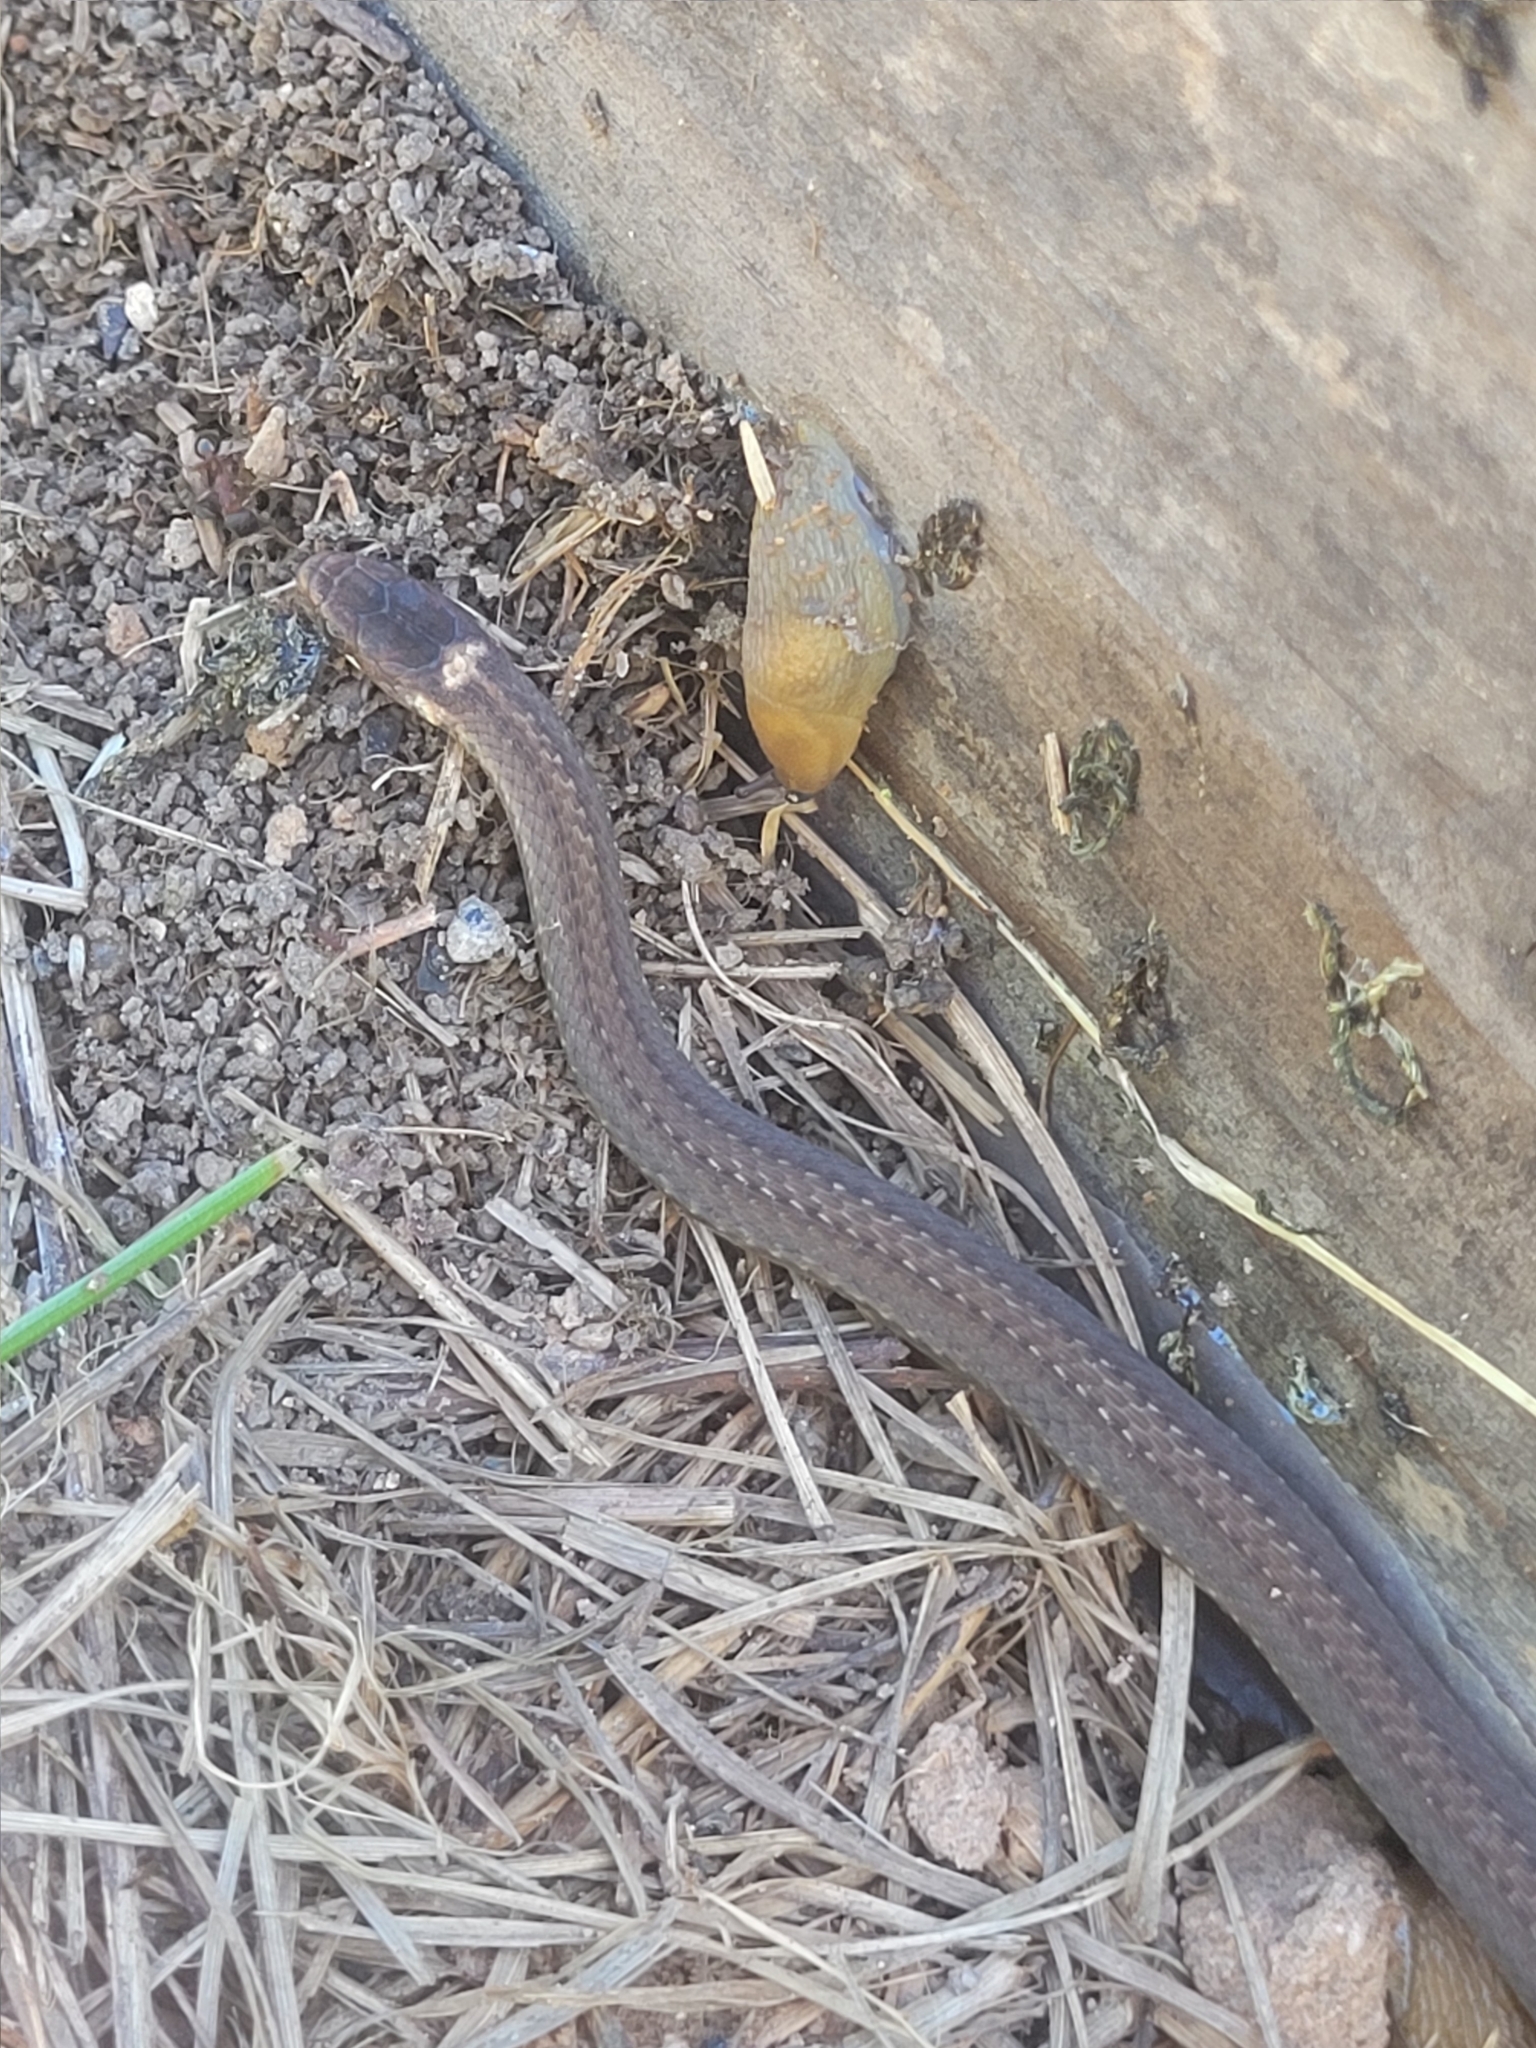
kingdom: Animalia
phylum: Chordata
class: Squamata
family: Colubridae
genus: Storeria
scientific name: Storeria occipitomaculata
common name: Redbelly snake
